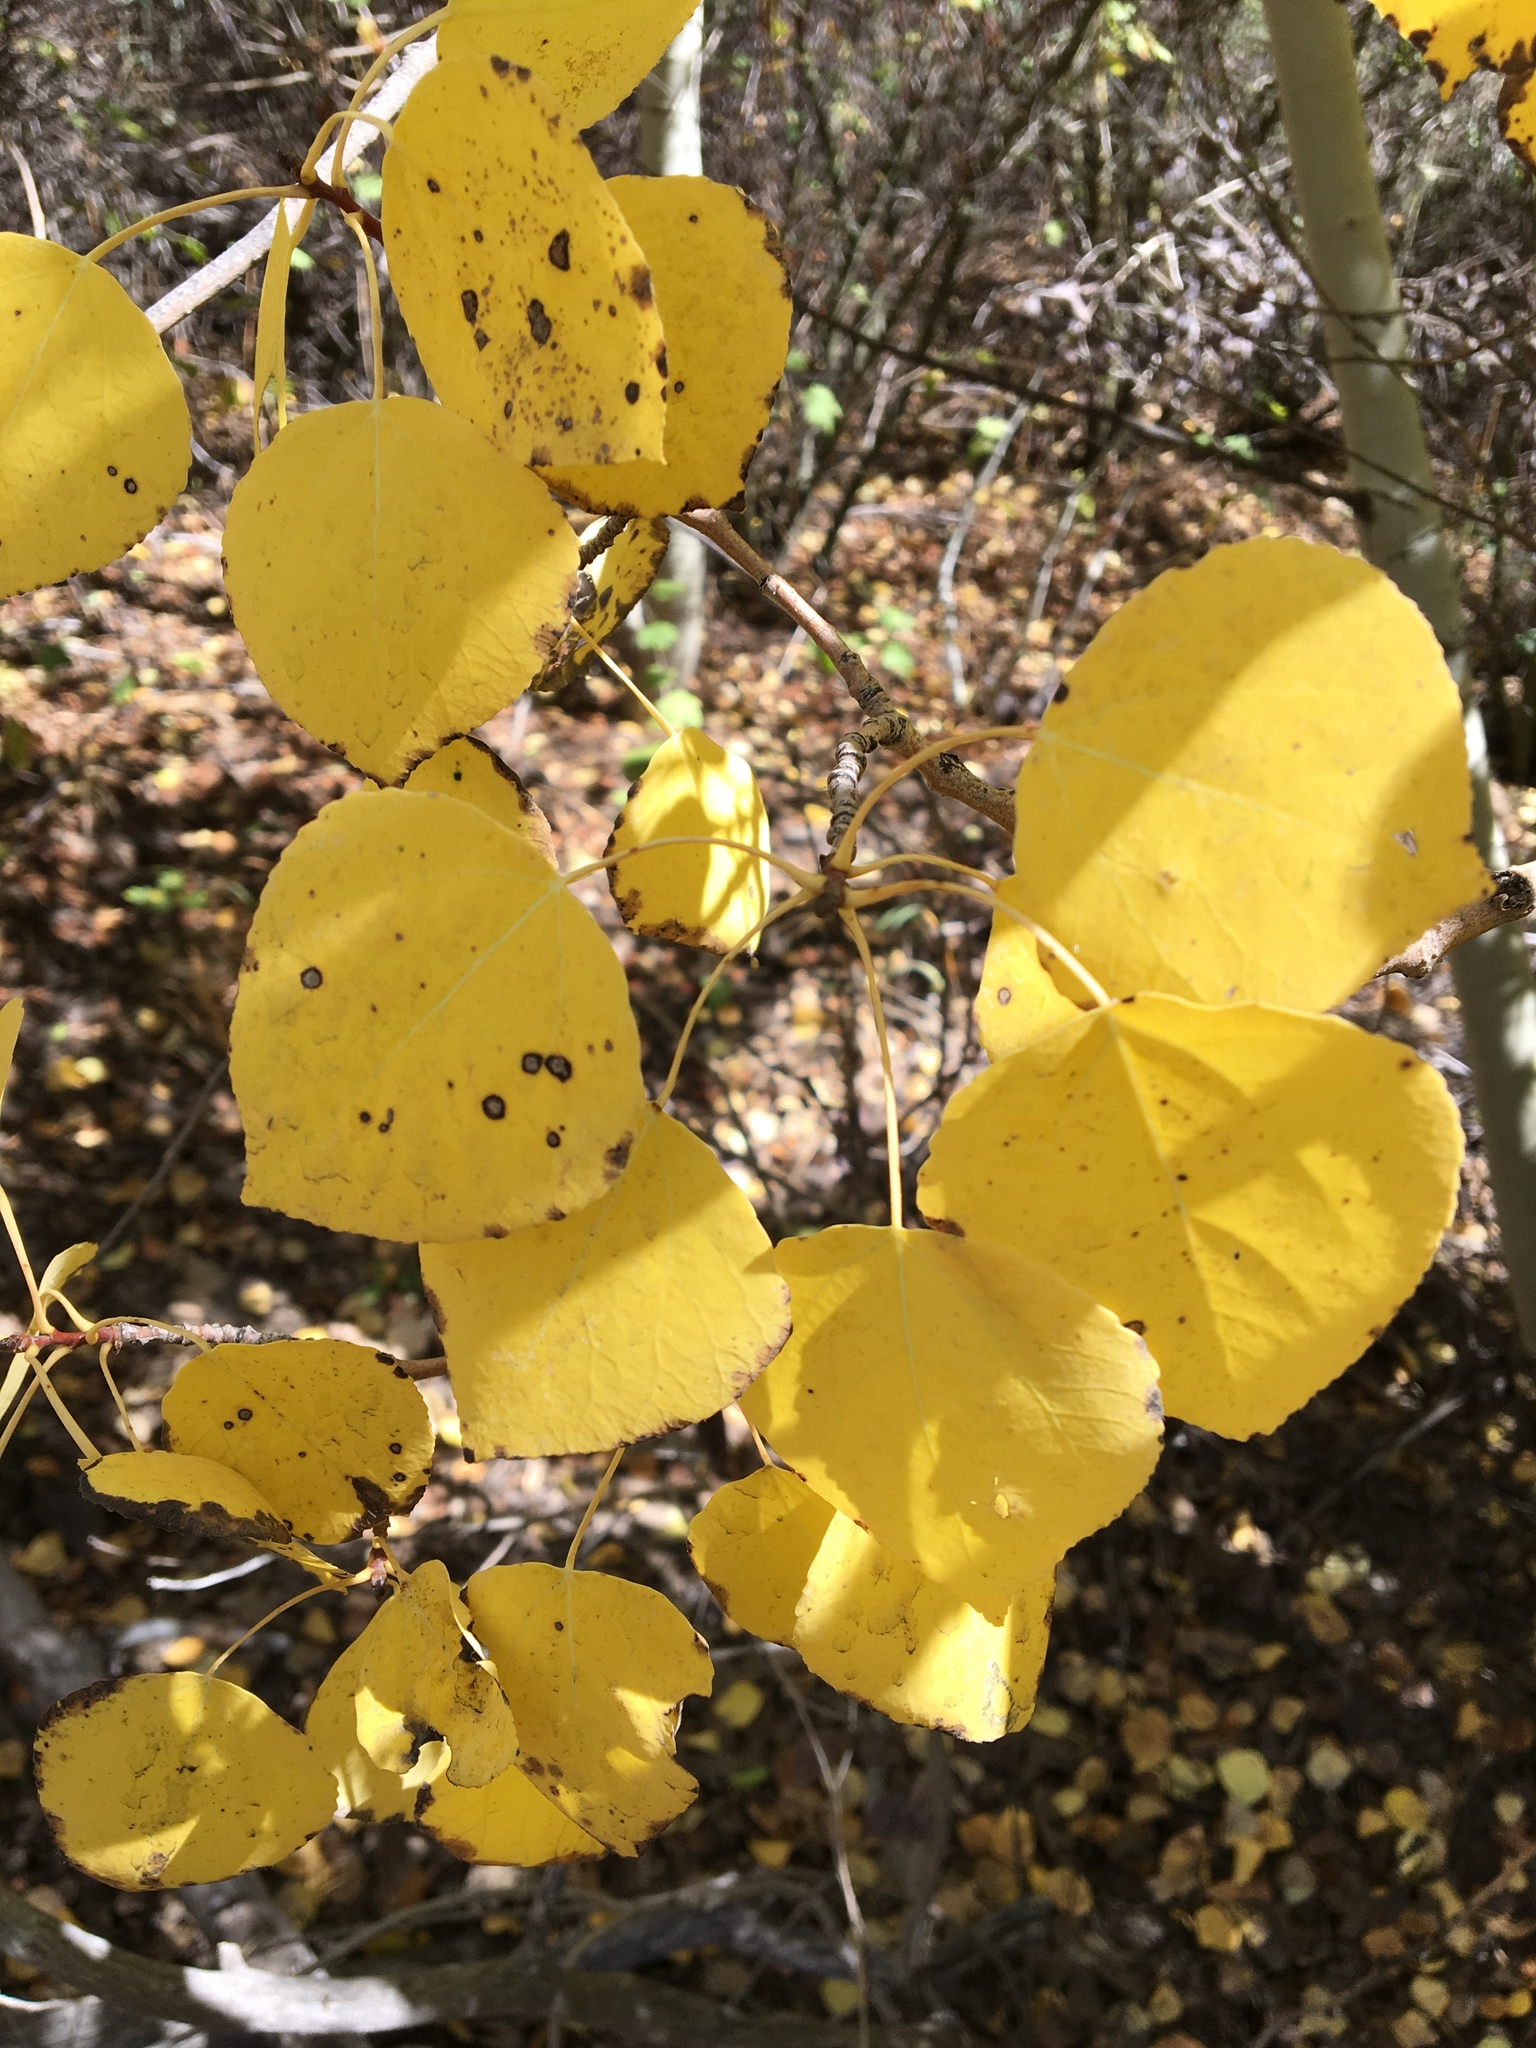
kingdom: Plantae
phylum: Tracheophyta
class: Magnoliopsida
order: Malpighiales
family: Salicaceae
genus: Populus
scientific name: Populus tremuloides
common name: Quaking aspen
